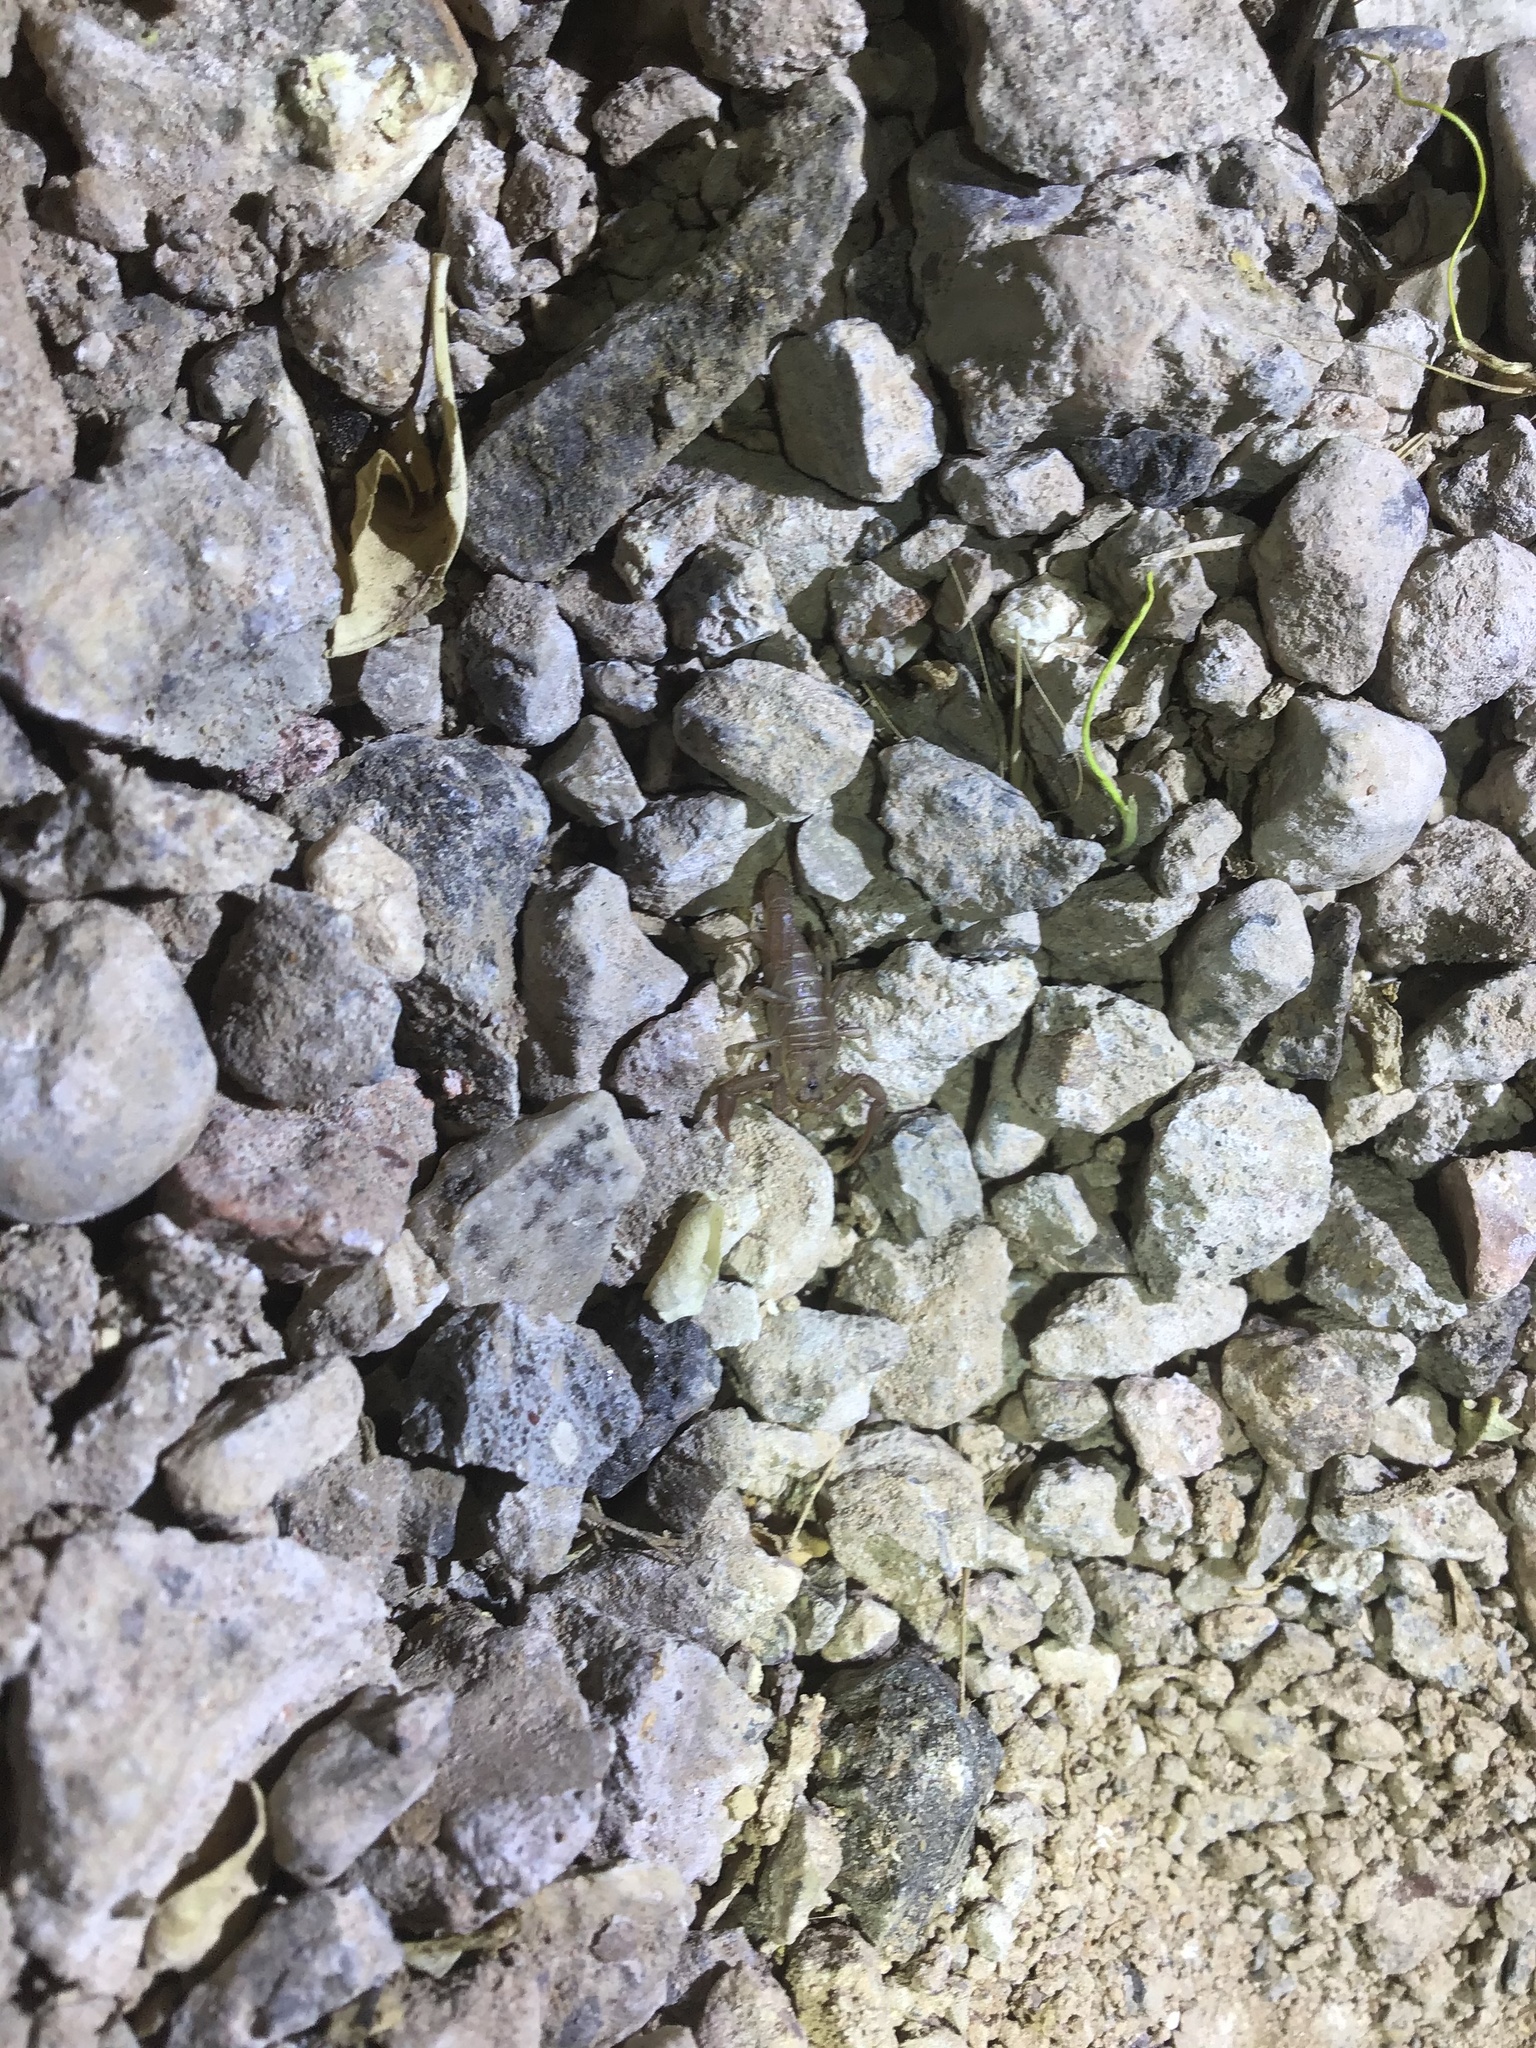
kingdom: Animalia
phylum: Arthropoda
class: Arachnida
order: Scorpiones
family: Vaejovidae
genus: Serradigitus
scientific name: Serradigitus wupatkiensis
